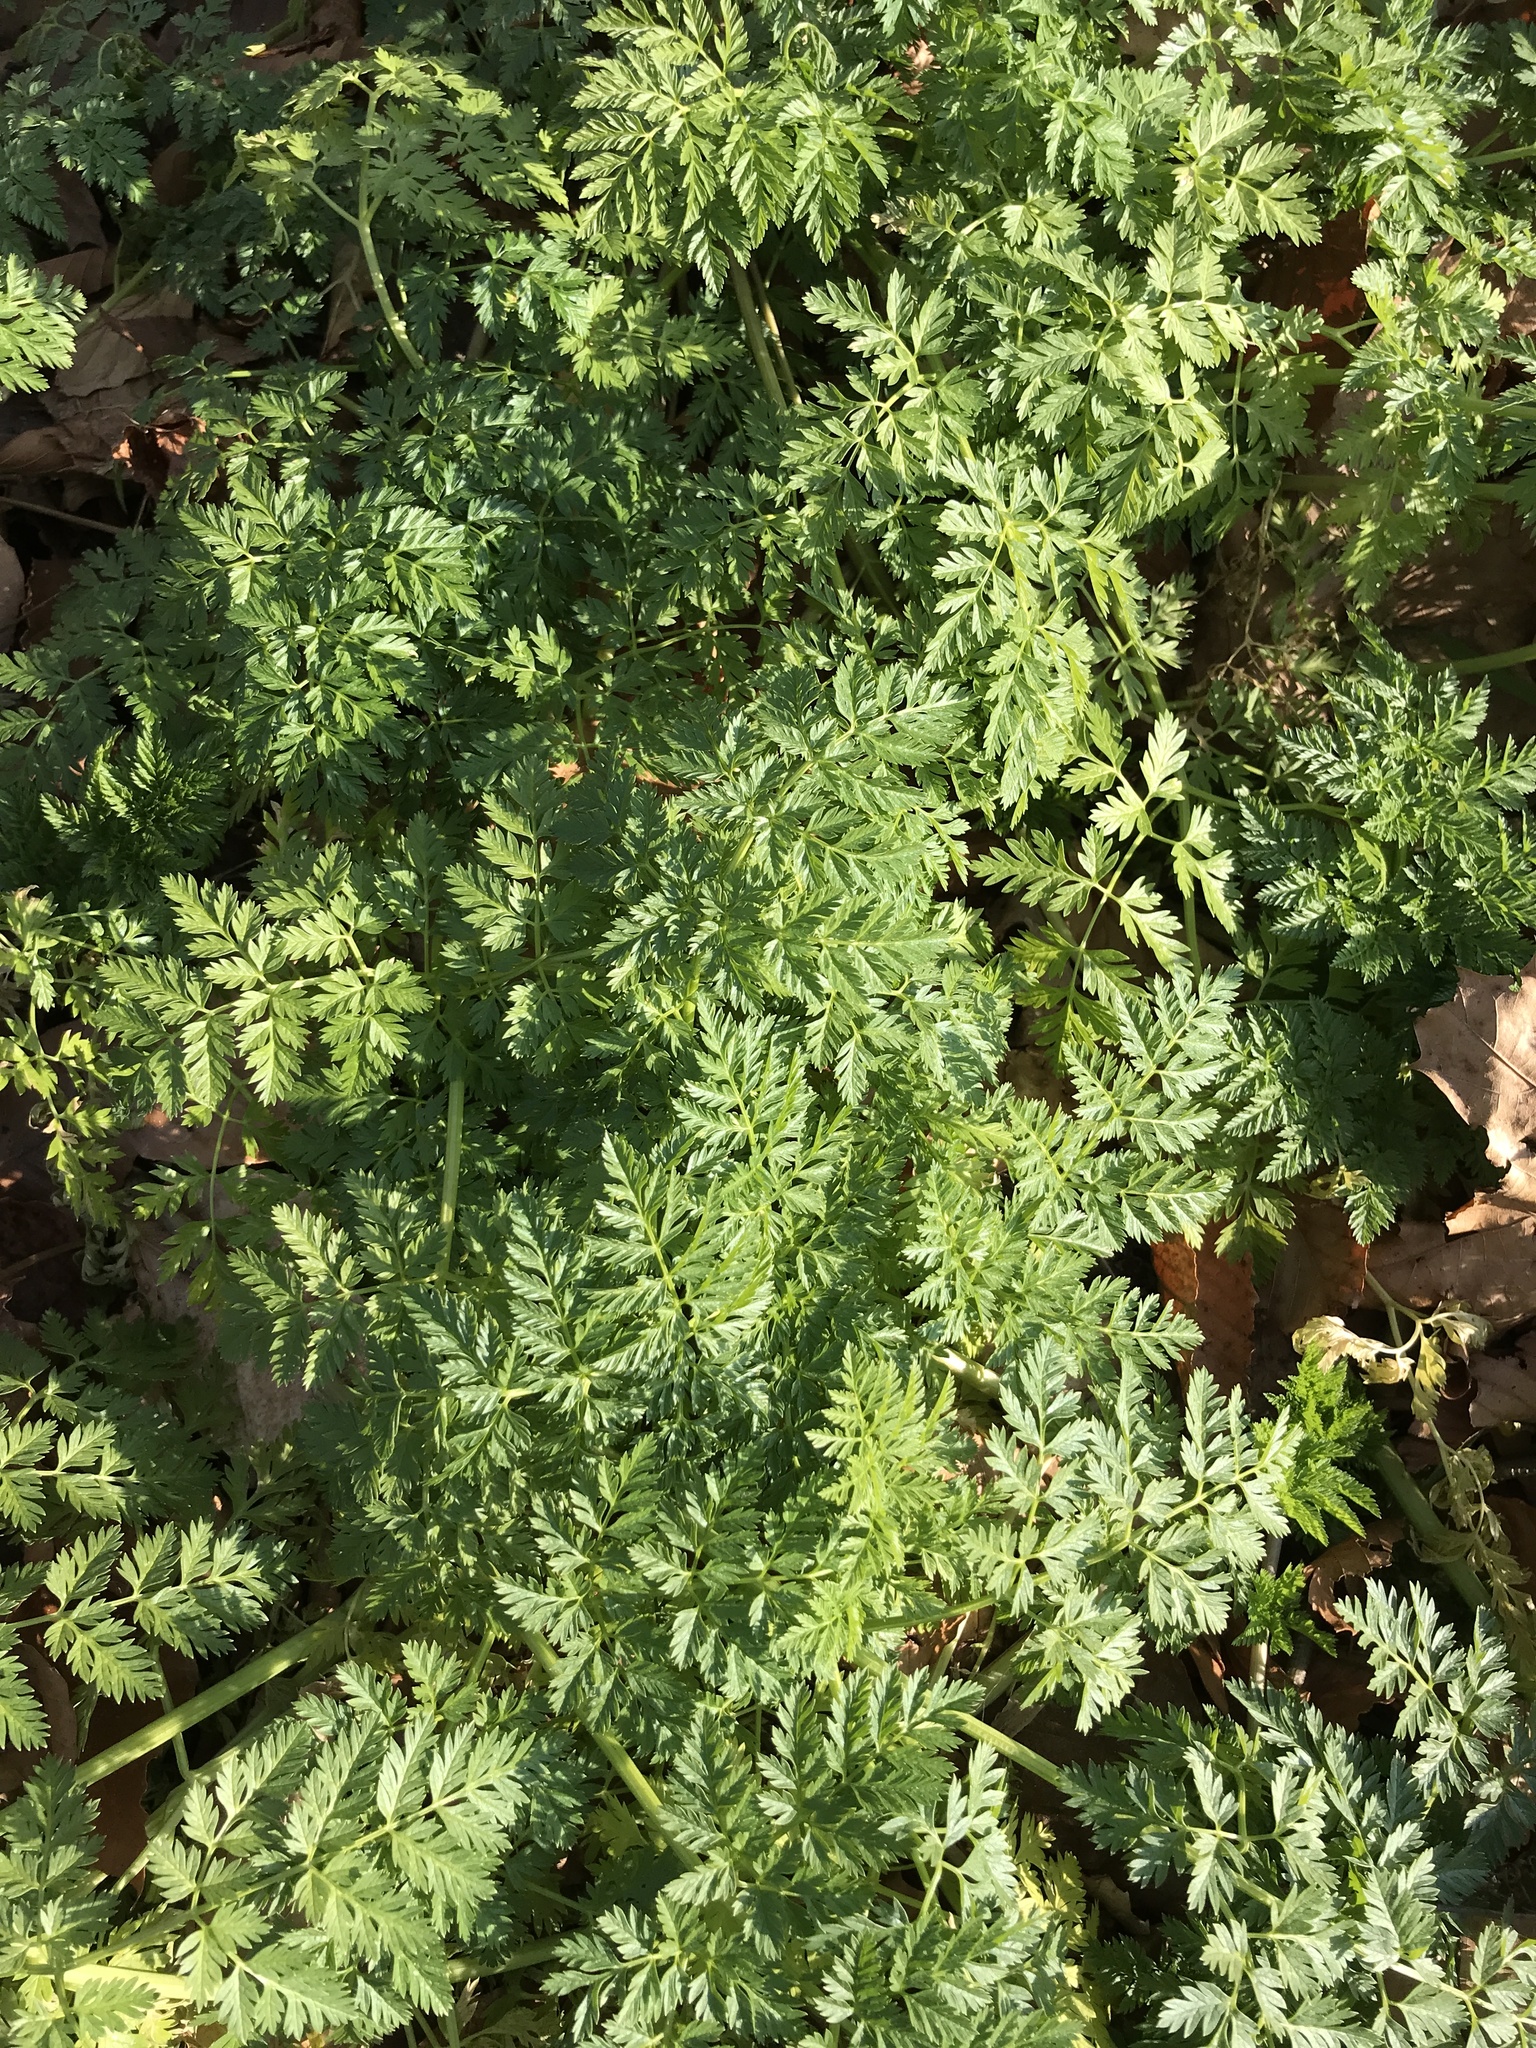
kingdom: Plantae
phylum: Tracheophyta
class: Magnoliopsida
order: Apiales
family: Apiaceae
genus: Conium
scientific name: Conium maculatum
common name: Hemlock
